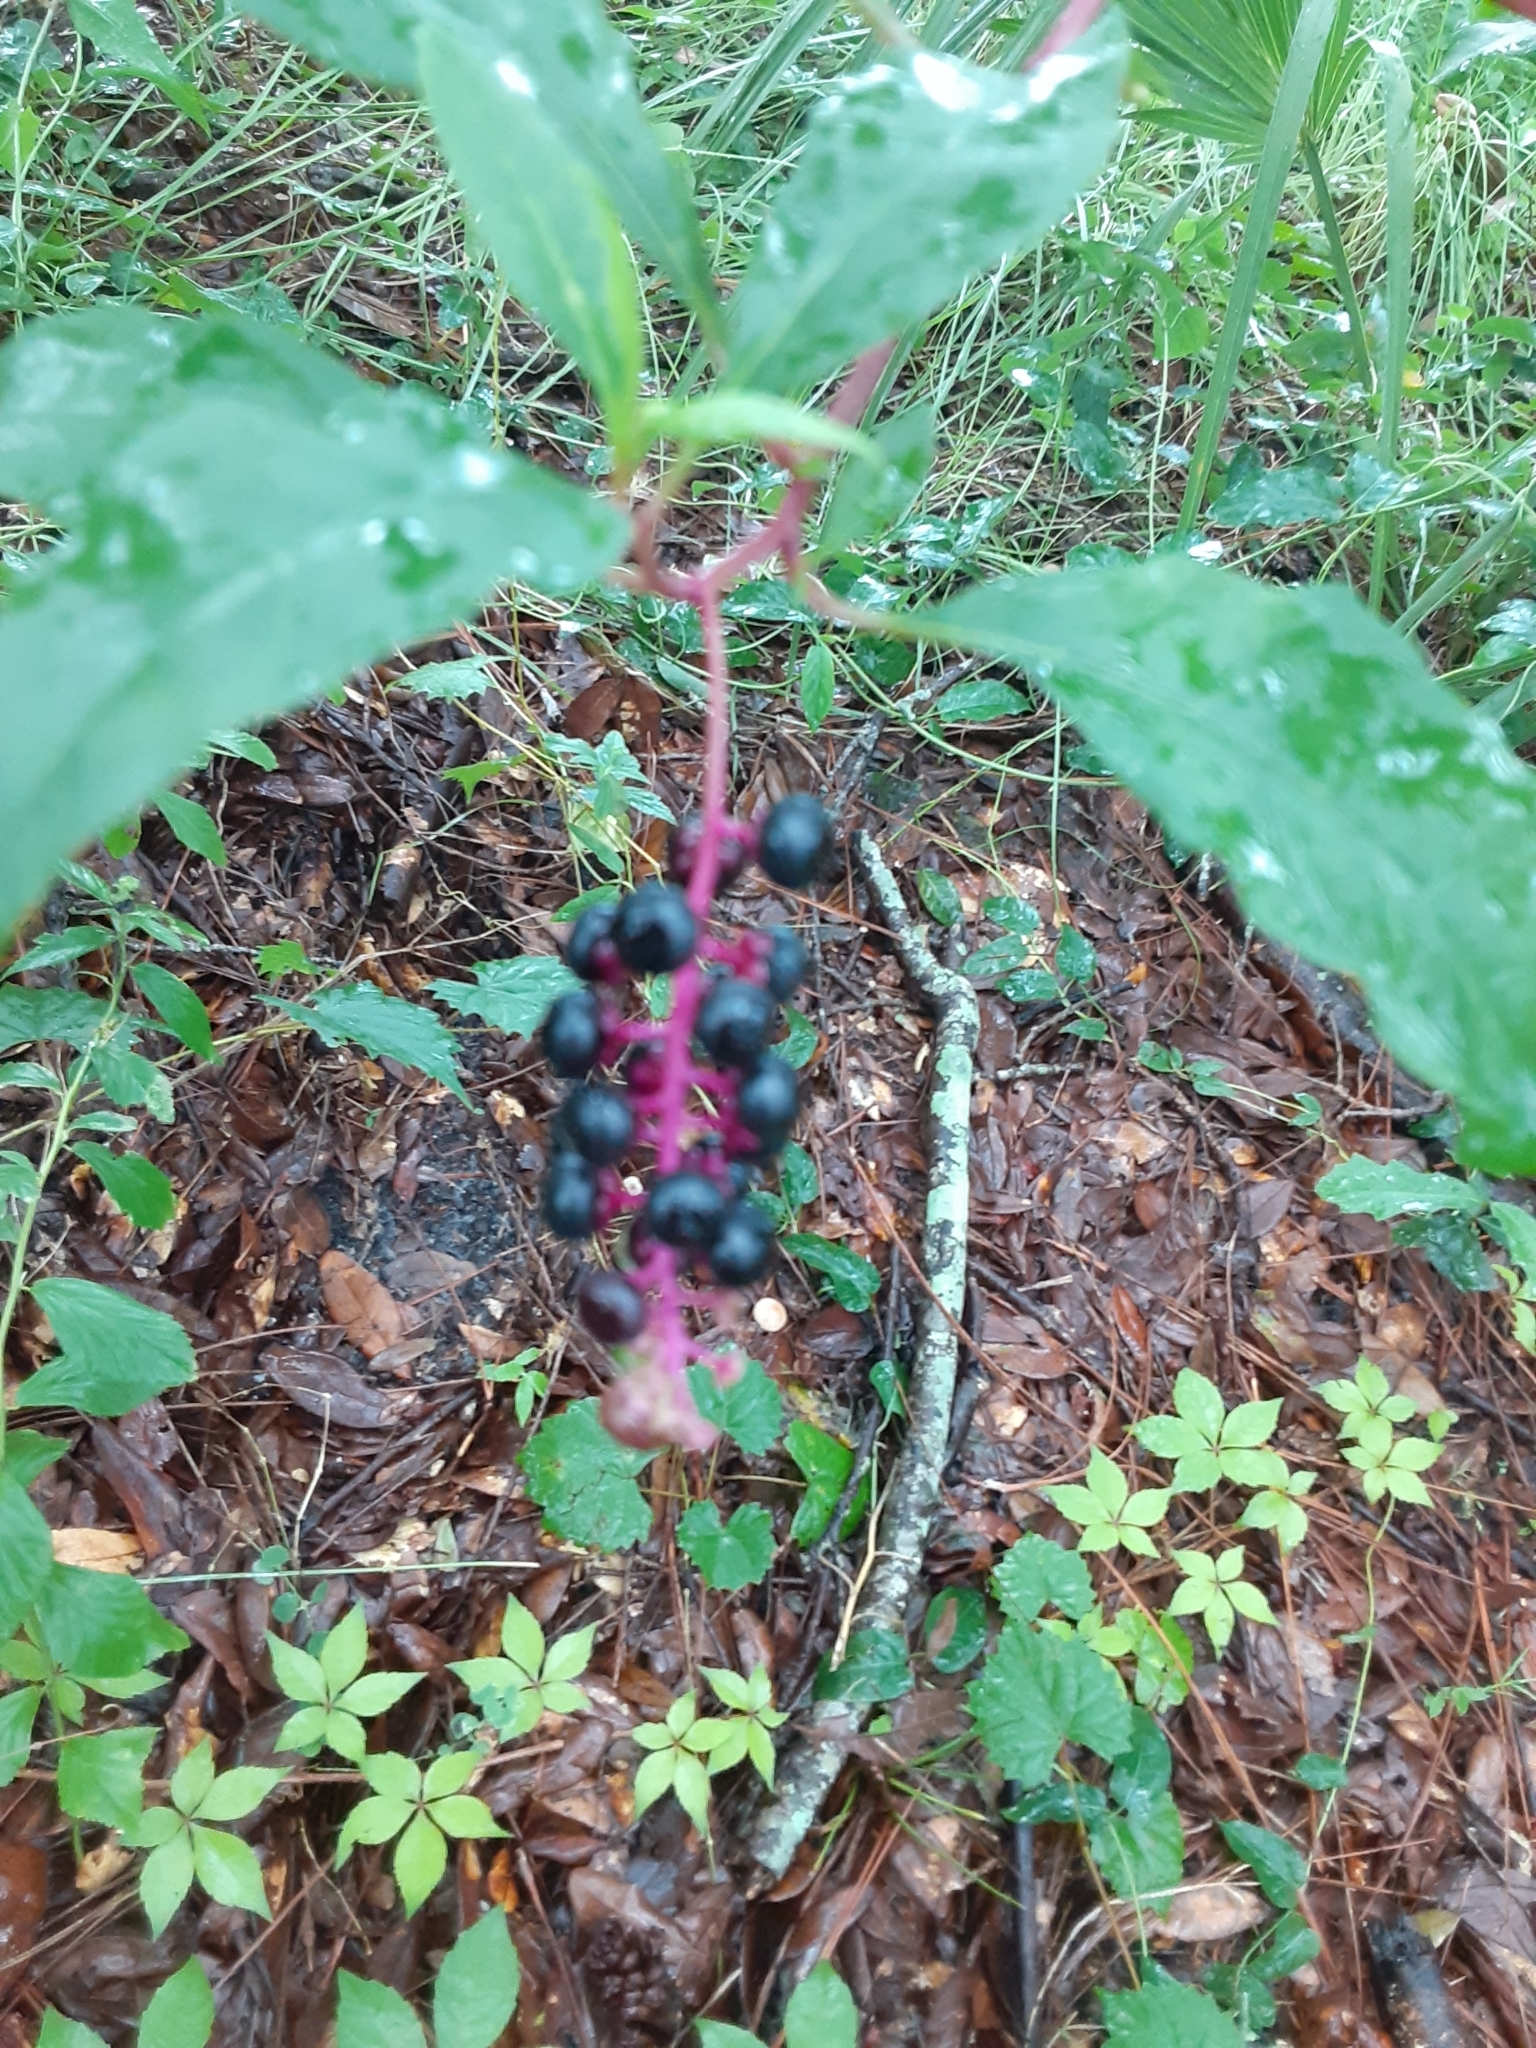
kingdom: Plantae
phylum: Tracheophyta
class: Magnoliopsida
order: Caryophyllales
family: Phytolaccaceae
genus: Phytolacca
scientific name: Phytolacca americana
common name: American pokeweed
